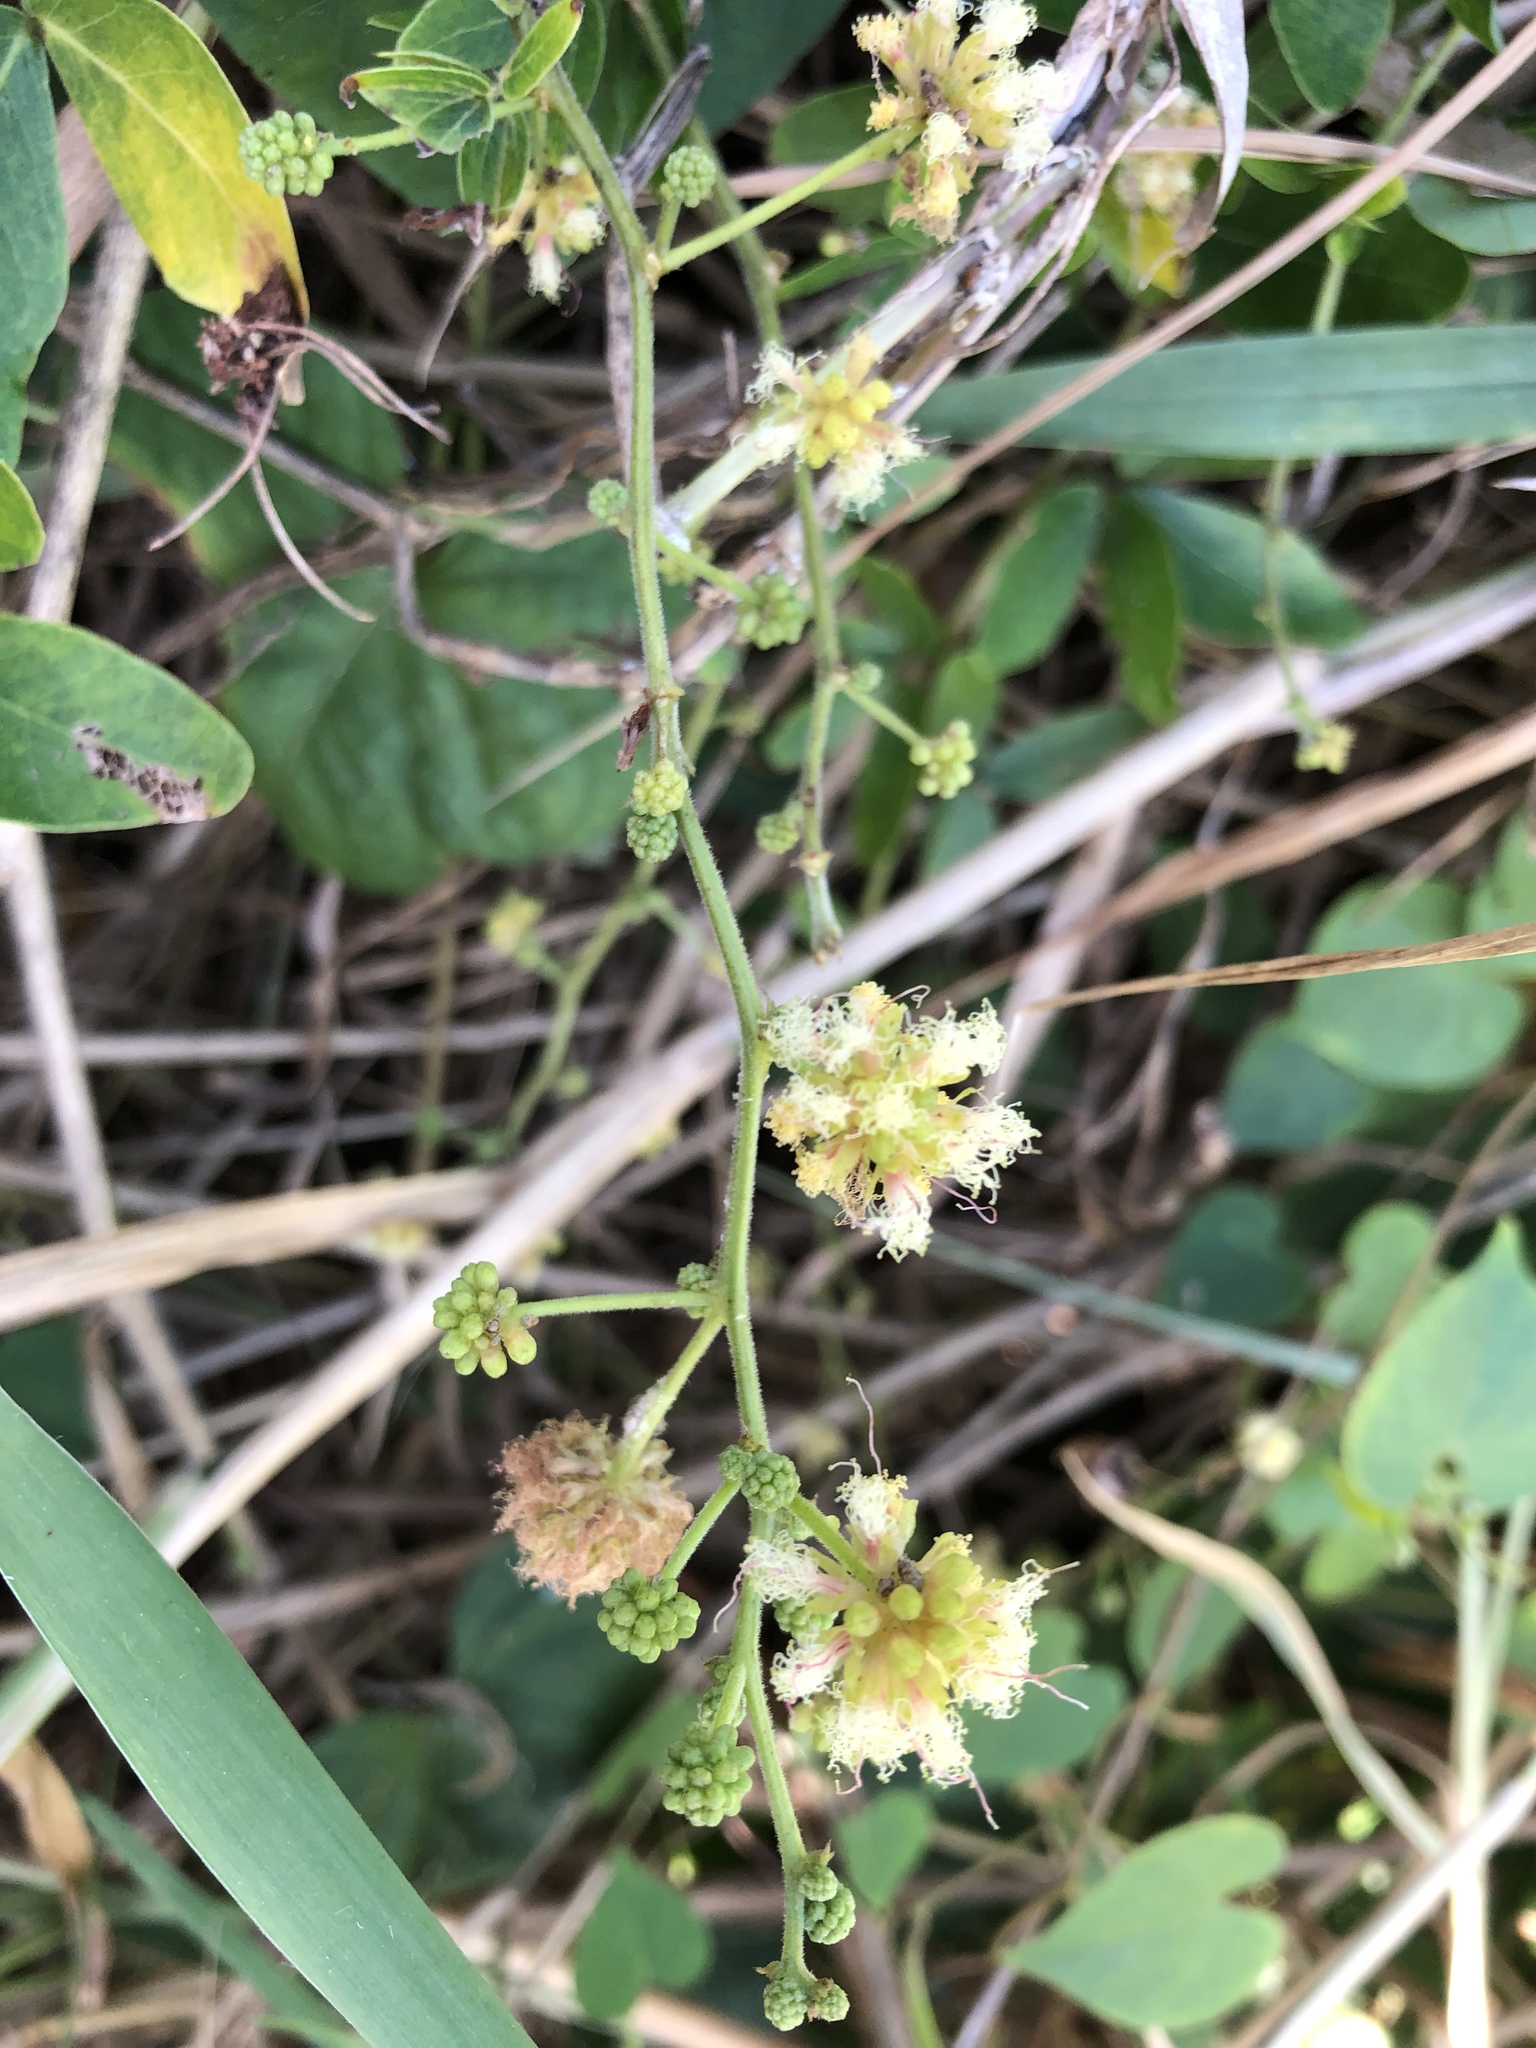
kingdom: Plantae
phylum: Tracheophyta
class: Magnoliopsida
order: Fabales
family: Fabaceae
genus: Pithecellobium
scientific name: Pithecellobium dulce
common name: Monkeypod
